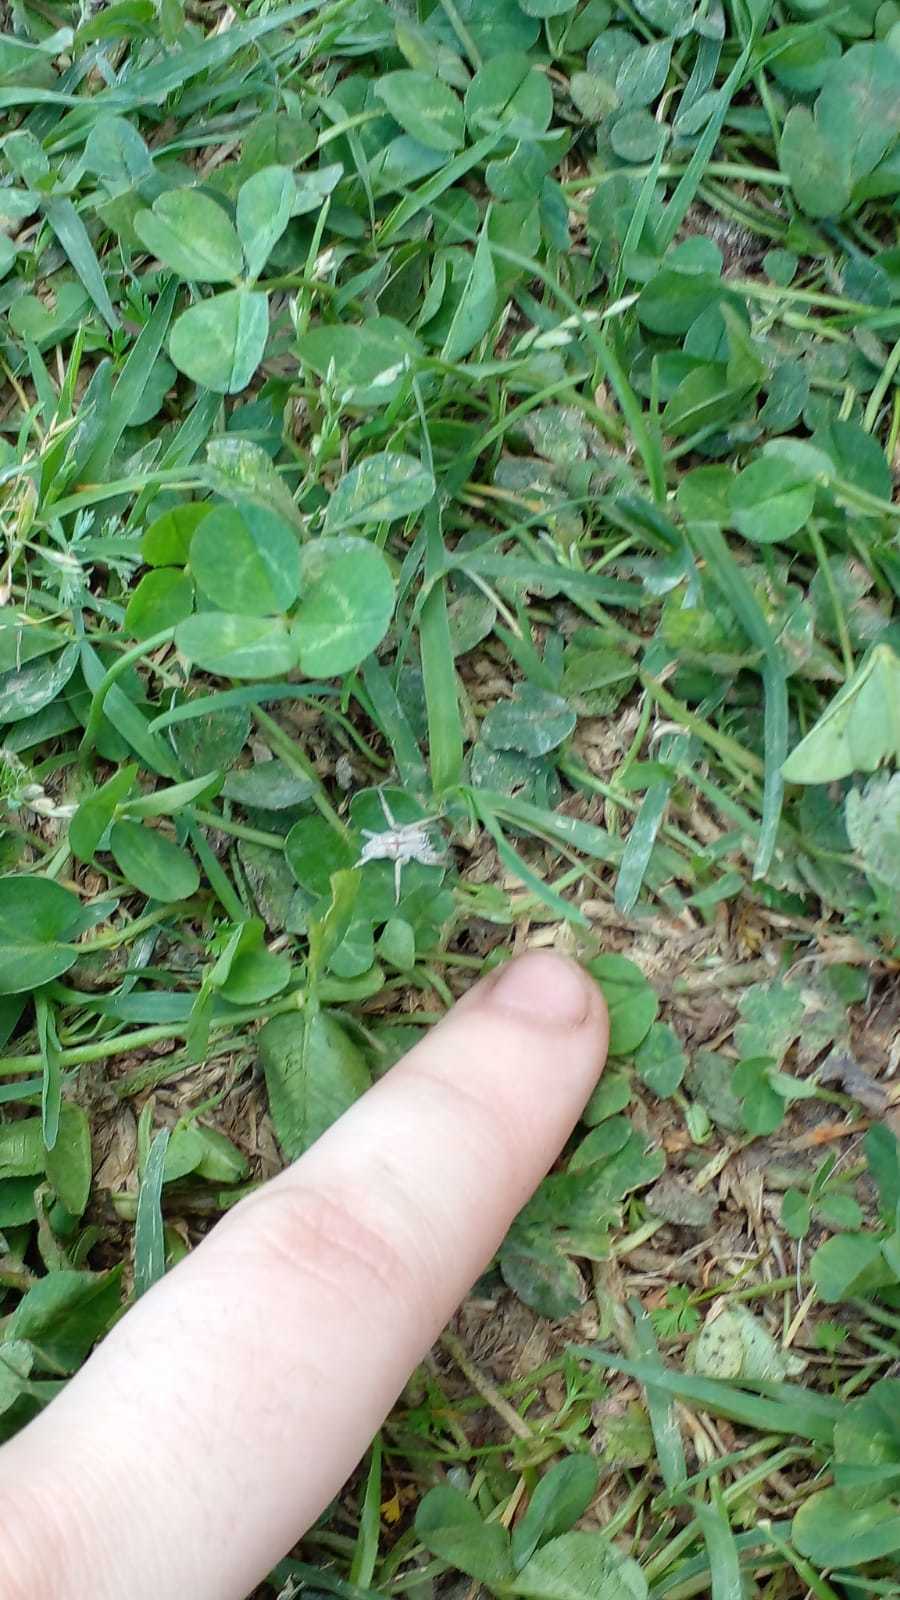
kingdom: Animalia
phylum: Arthropoda
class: Arachnida
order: Araneae
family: Anyphaenidae
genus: Arachosia
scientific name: Arachosia praesignis
